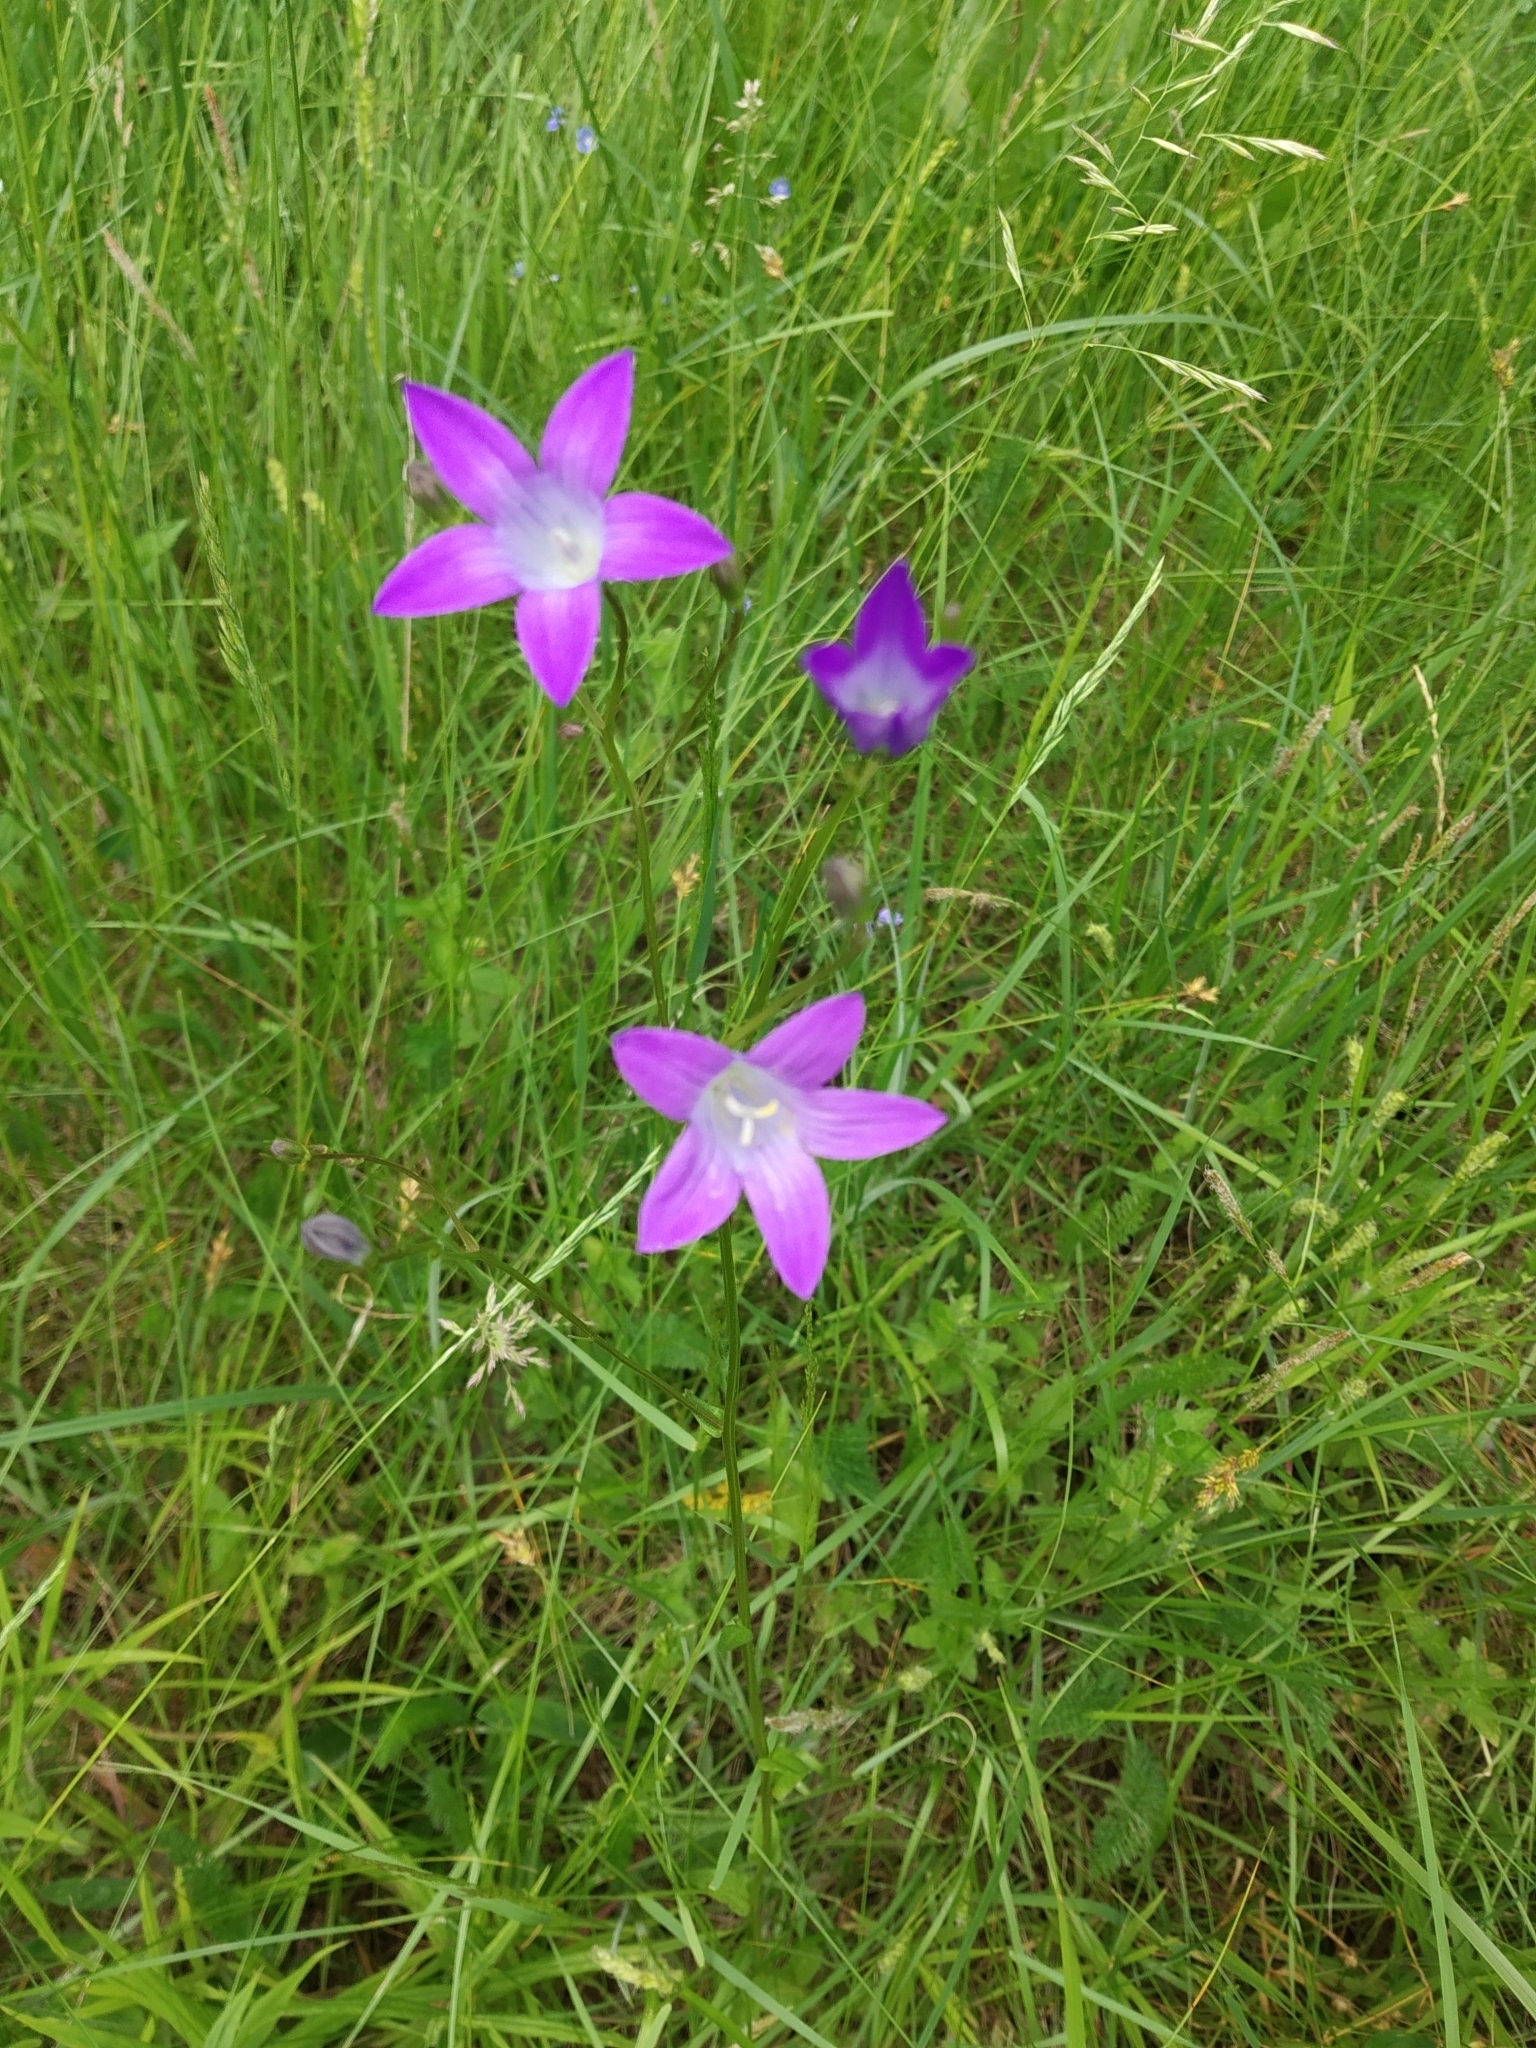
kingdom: Plantae
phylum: Tracheophyta
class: Magnoliopsida
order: Asterales
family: Campanulaceae
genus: Campanula
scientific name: Campanula patula
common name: Spreading bellflower
